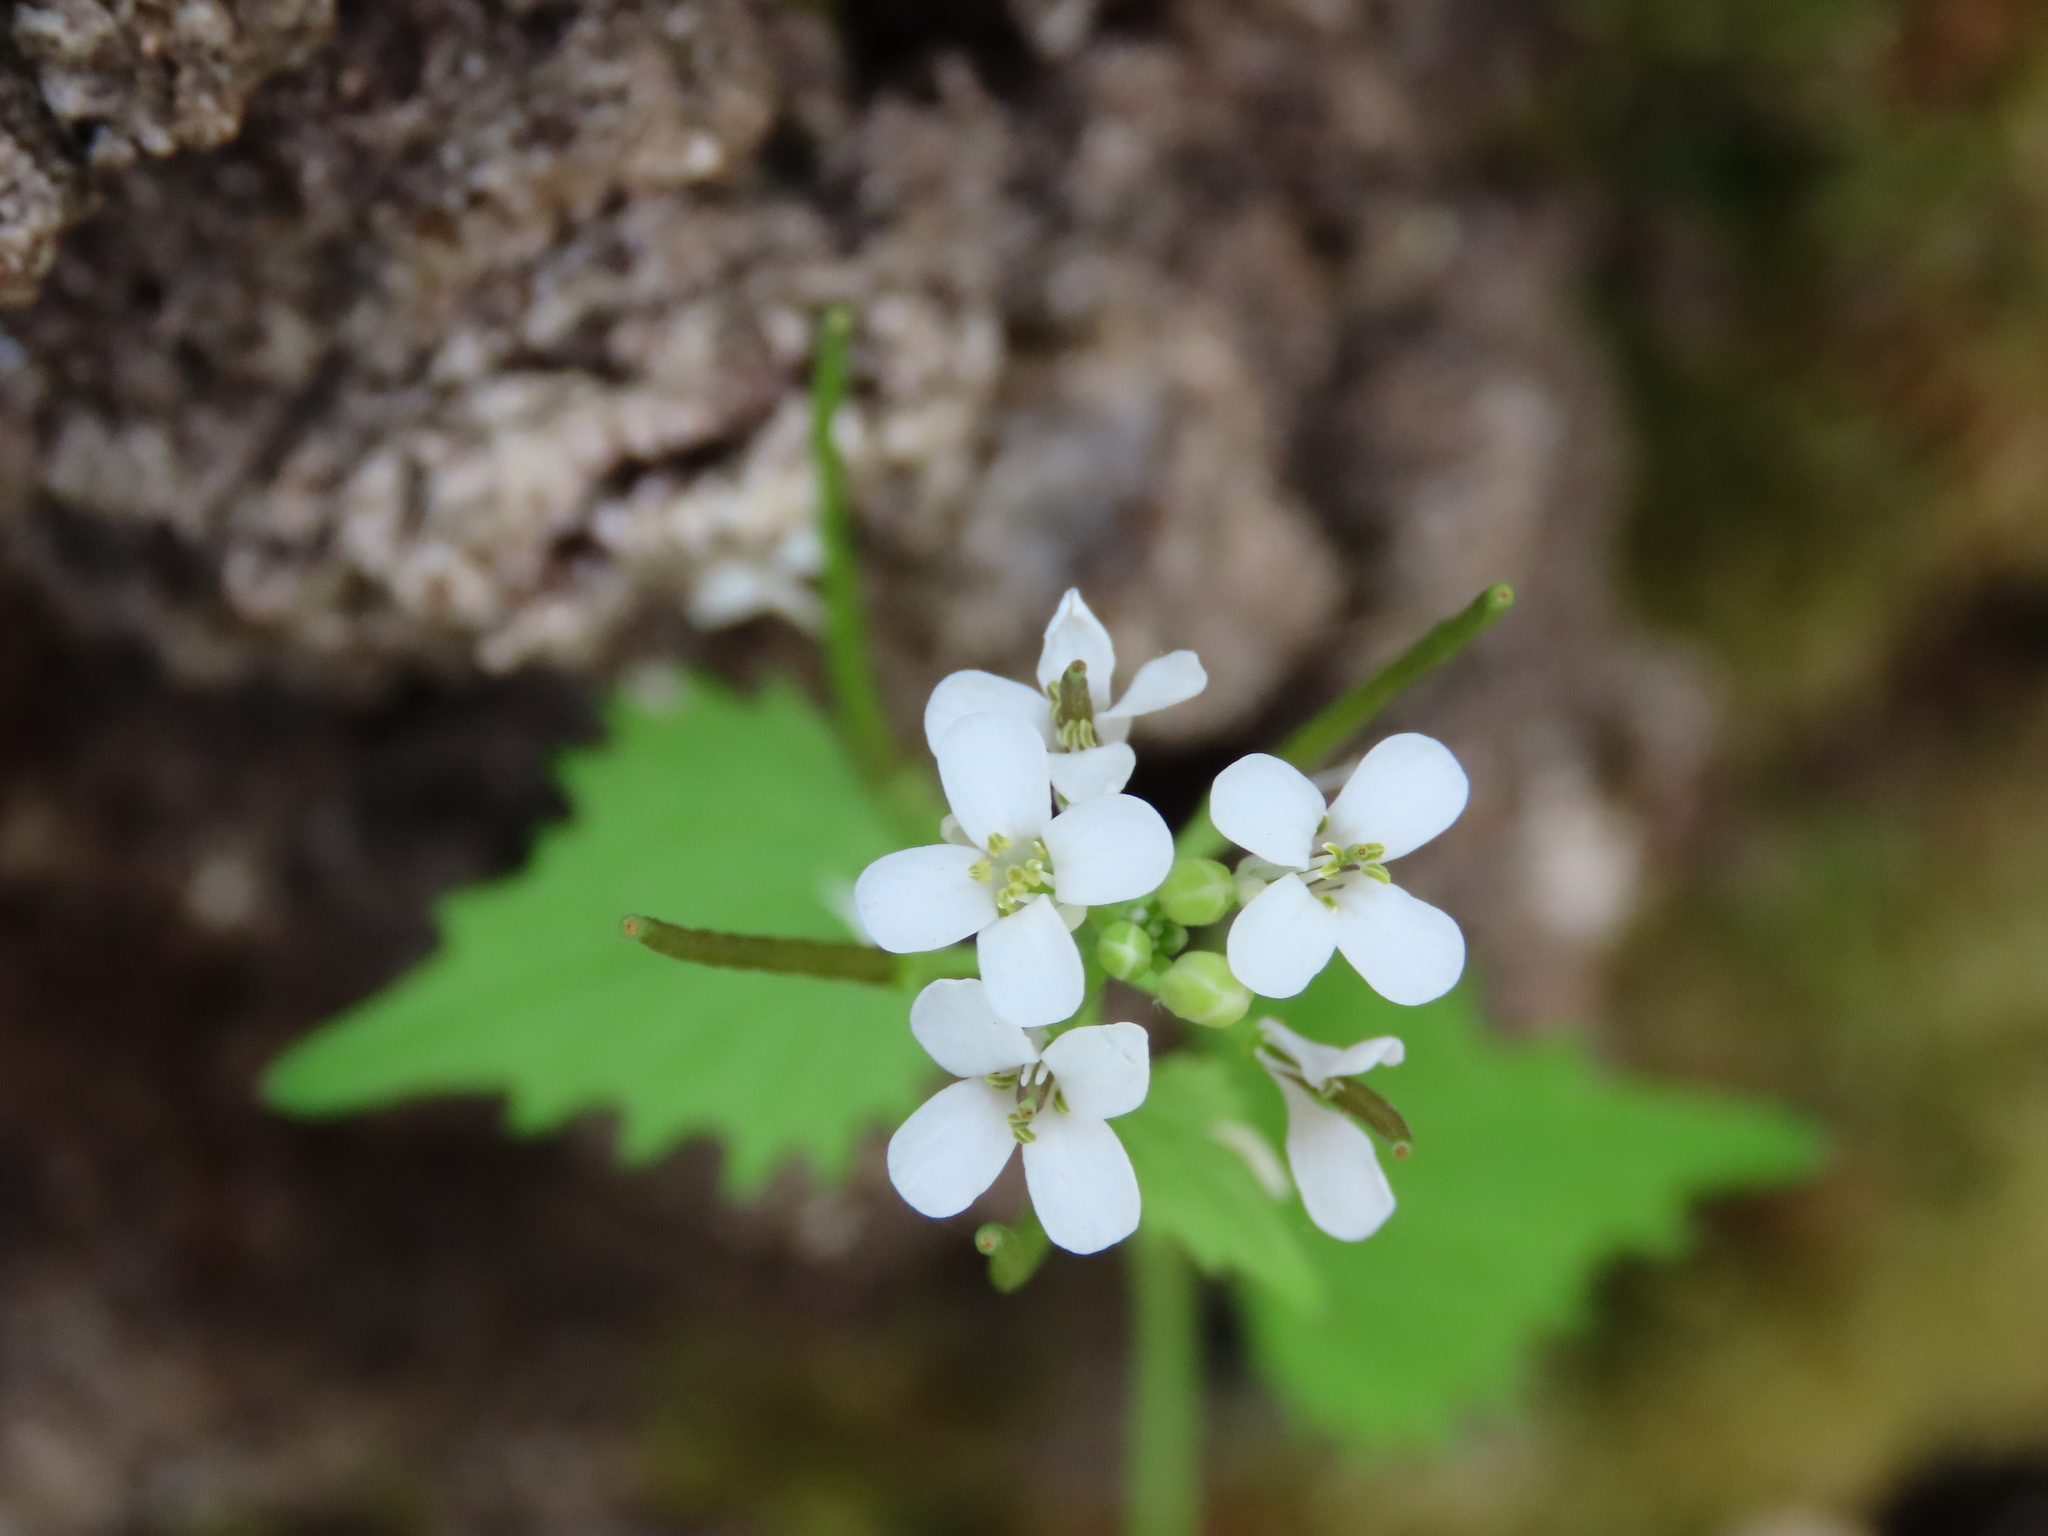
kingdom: Plantae
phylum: Tracheophyta
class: Magnoliopsida
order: Brassicales
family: Brassicaceae
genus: Alliaria
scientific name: Alliaria petiolata
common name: Garlic mustard
